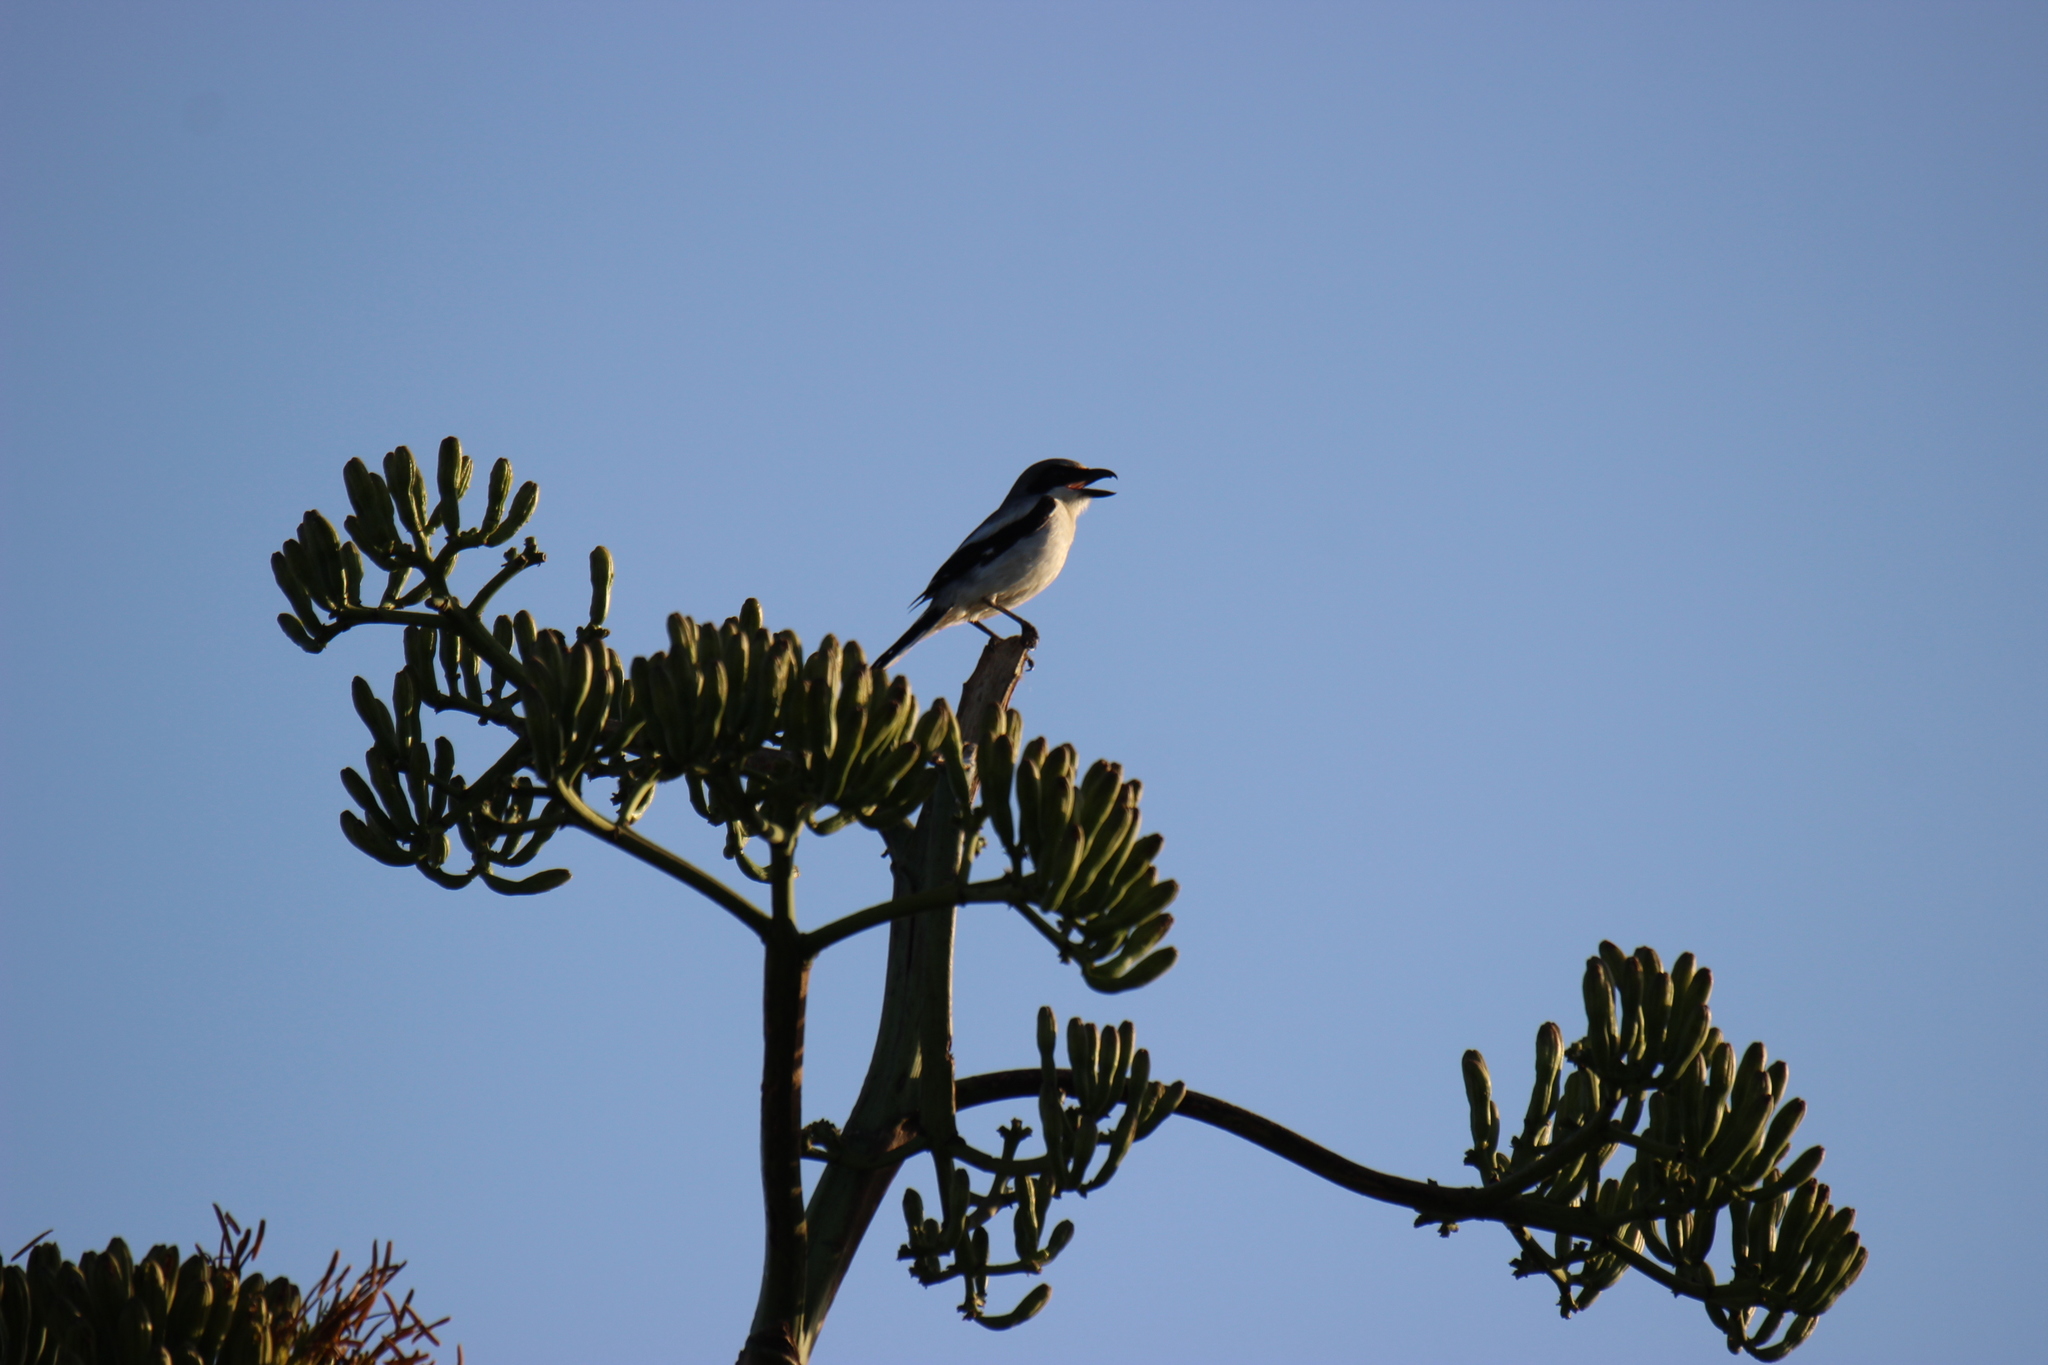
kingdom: Animalia
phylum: Chordata
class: Aves
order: Passeriformes
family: Laniidae
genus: Lanius
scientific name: Lanius ludovicianus
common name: Loggerhead shrike
